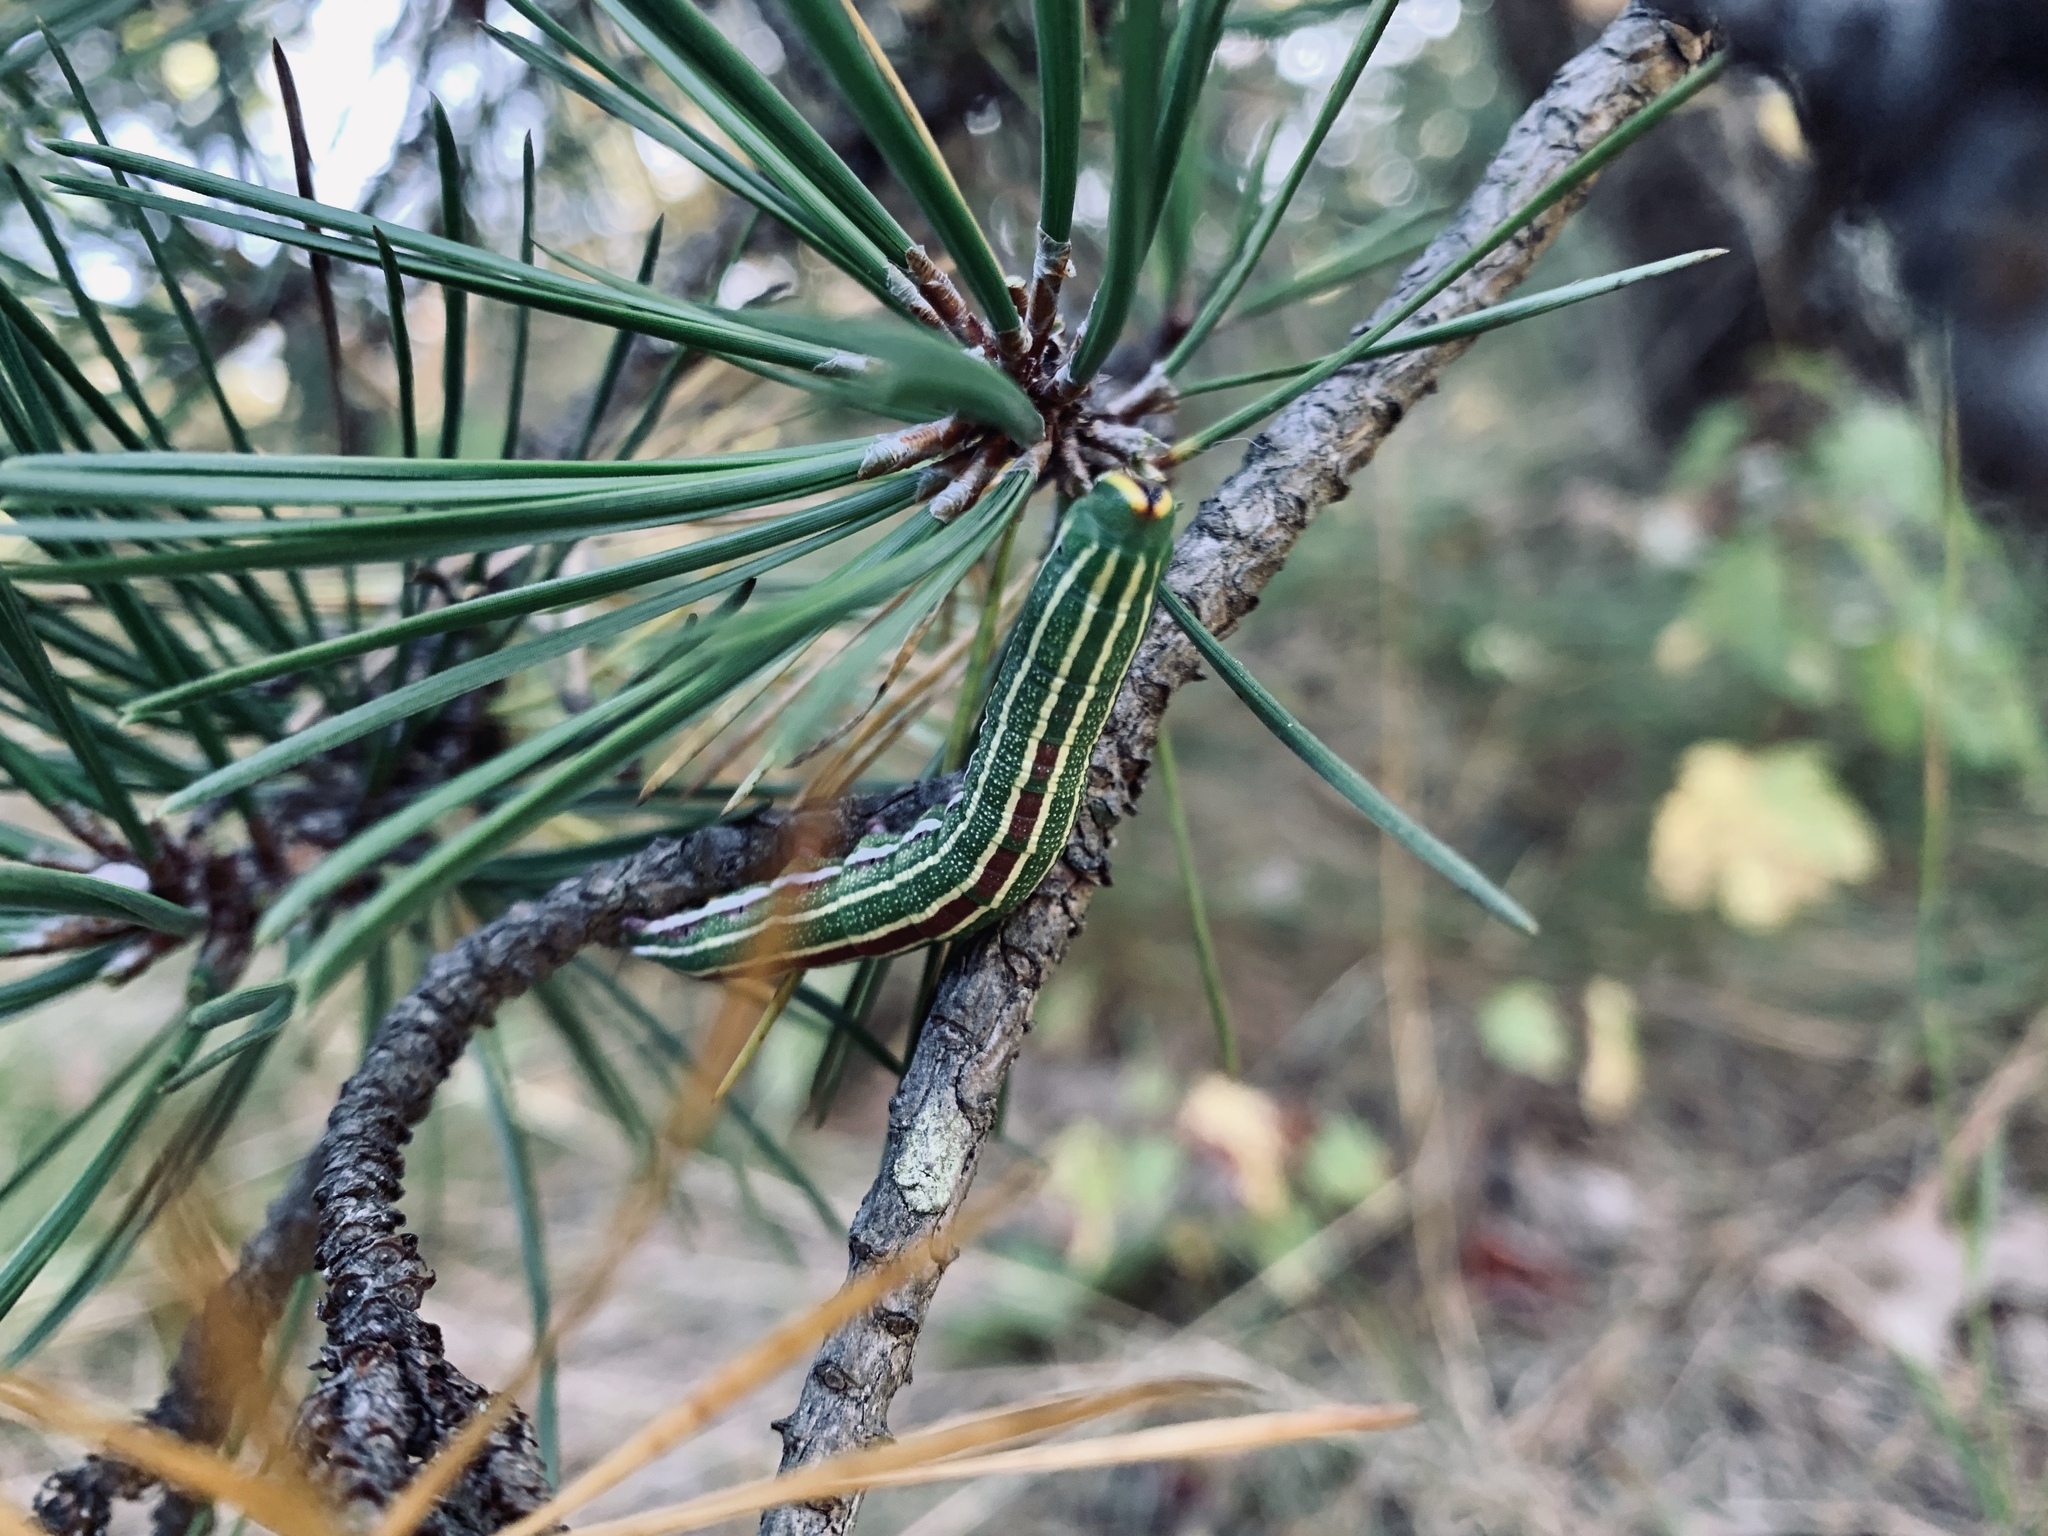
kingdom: Animalia
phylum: Arthropoda
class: Insecta
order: Lepidoptera
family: Sphingidae
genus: Lapara
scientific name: Lapara bombycoides
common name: Northern pine sphinx
